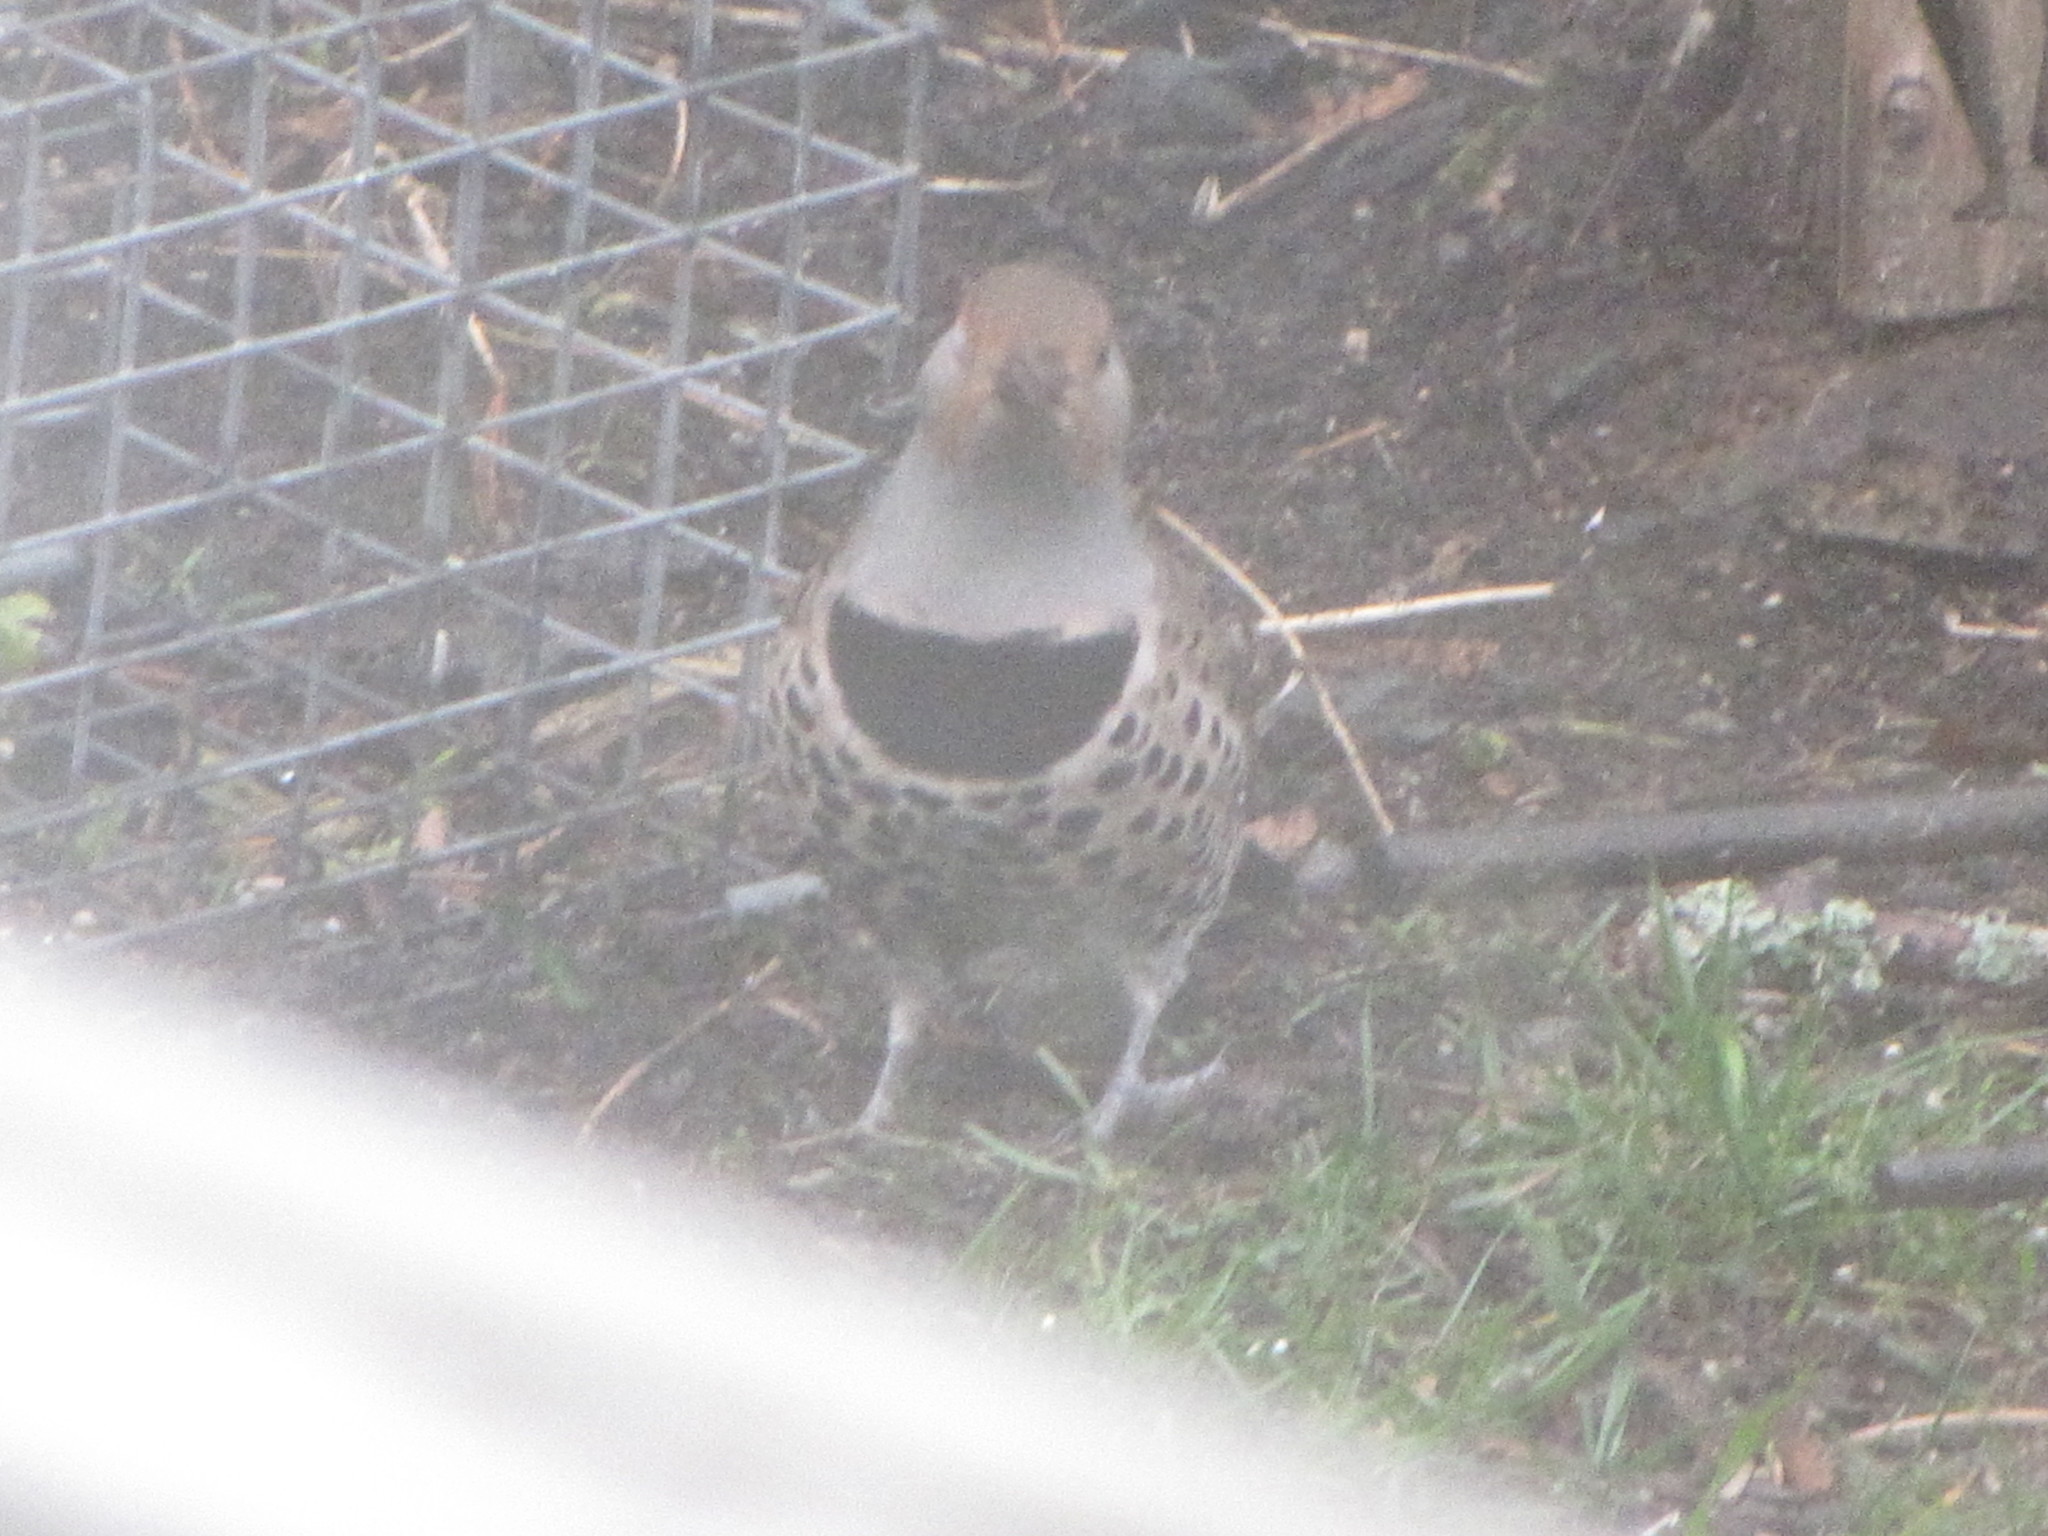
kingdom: Animalia
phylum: Chordata
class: Aves
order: Piciformes
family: Picidae
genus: Colaptes
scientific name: Colaptes auratus
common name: Northern flicker
